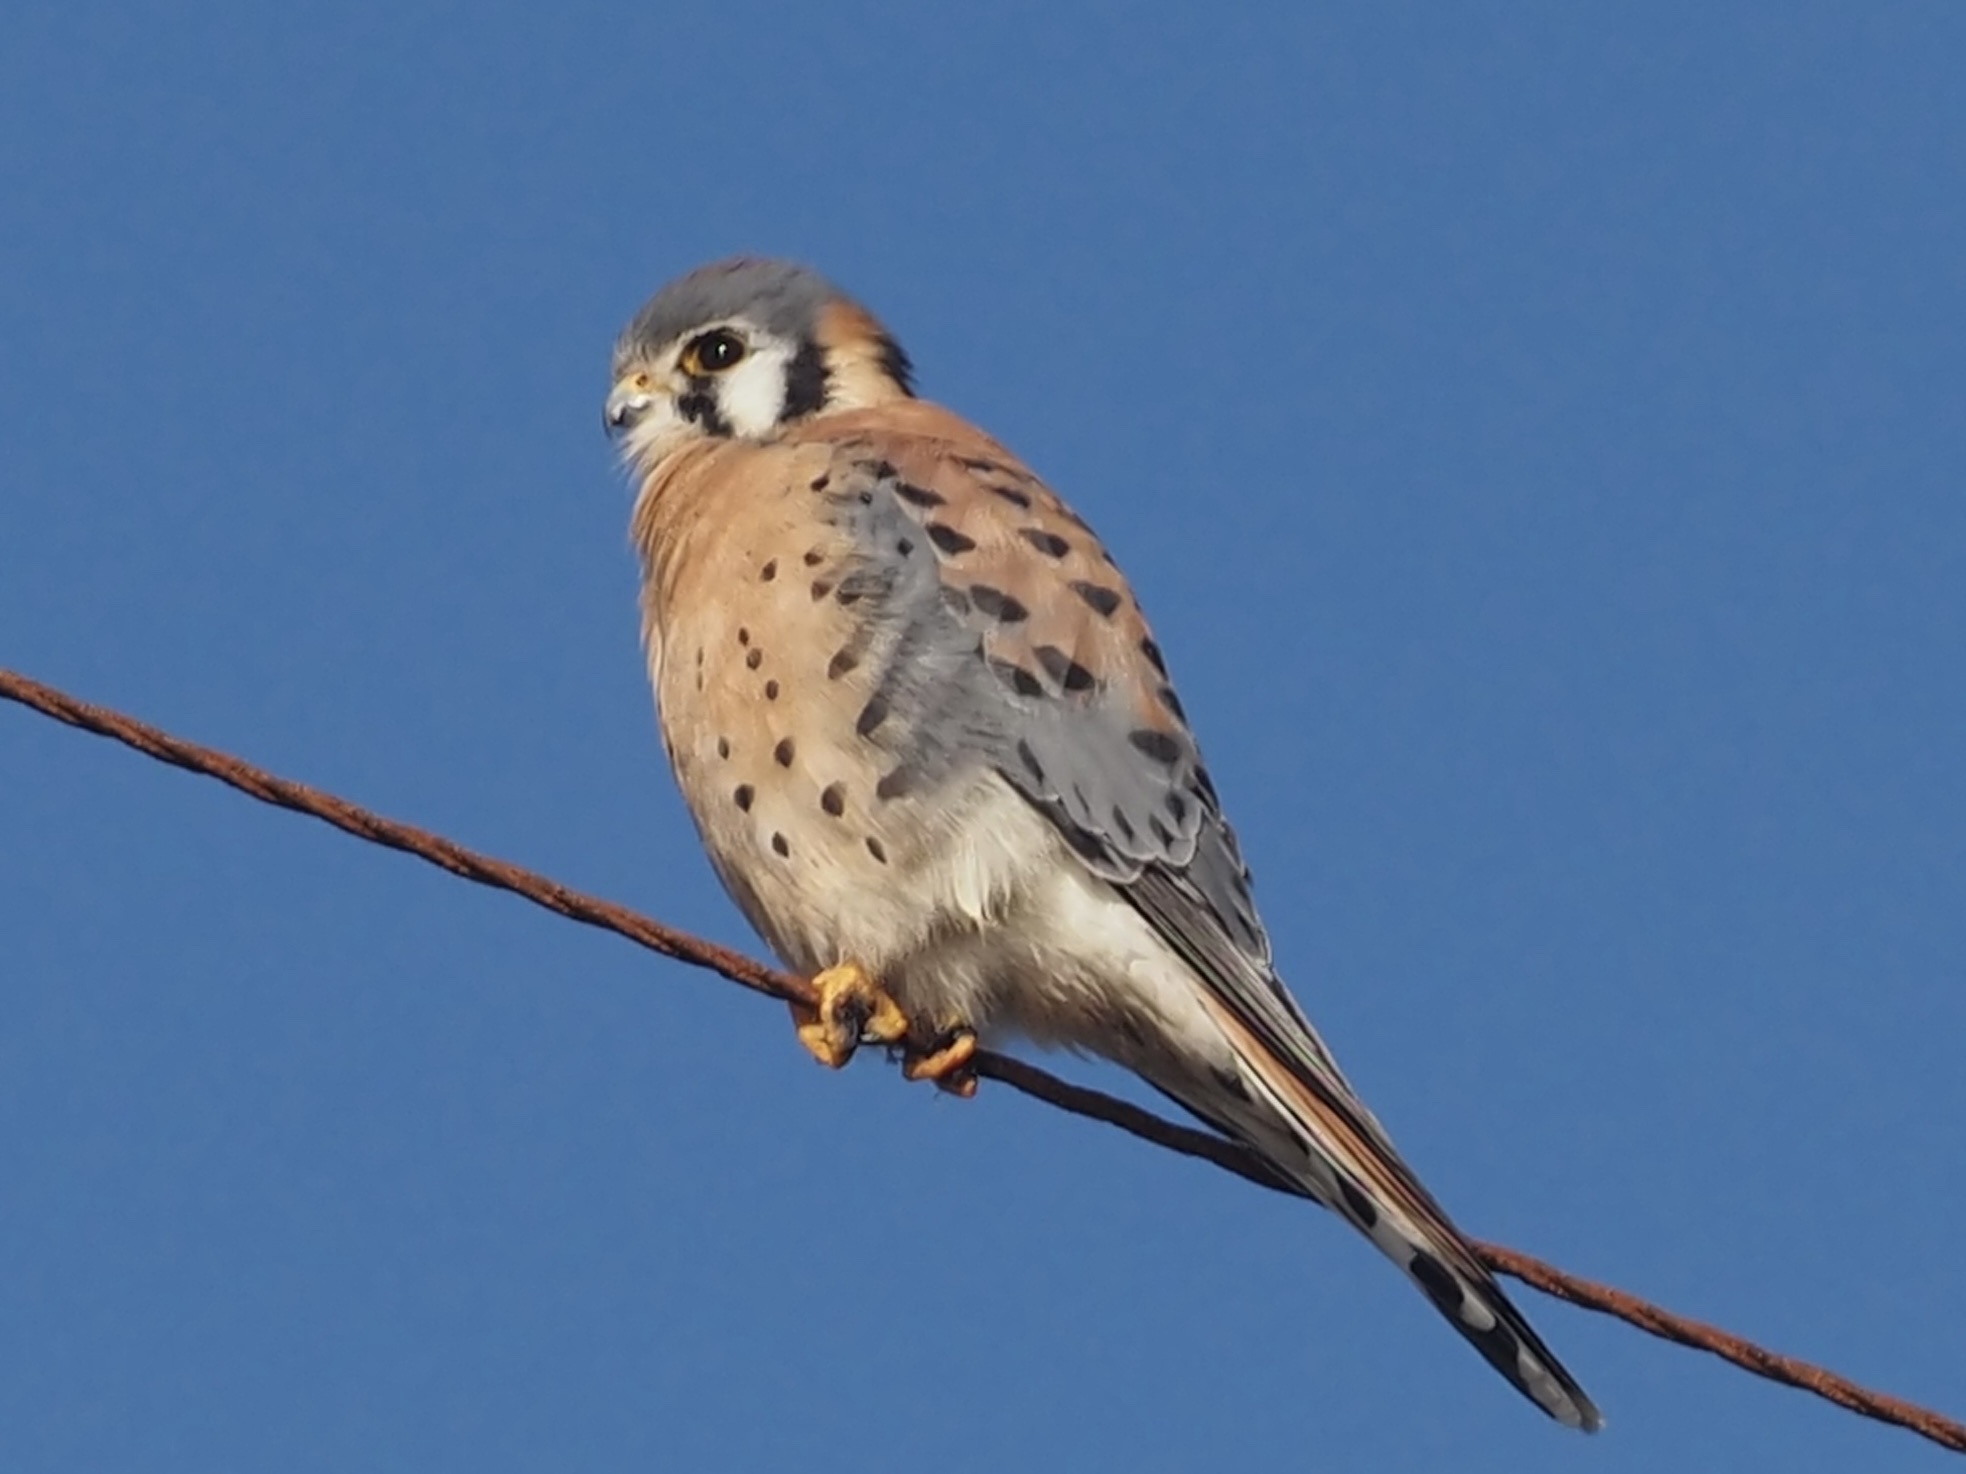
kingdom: Animalia
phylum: Chordata
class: Aves
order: Falconiformes
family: Falconidae
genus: Falco
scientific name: Falco sparverius
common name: American kestrel
